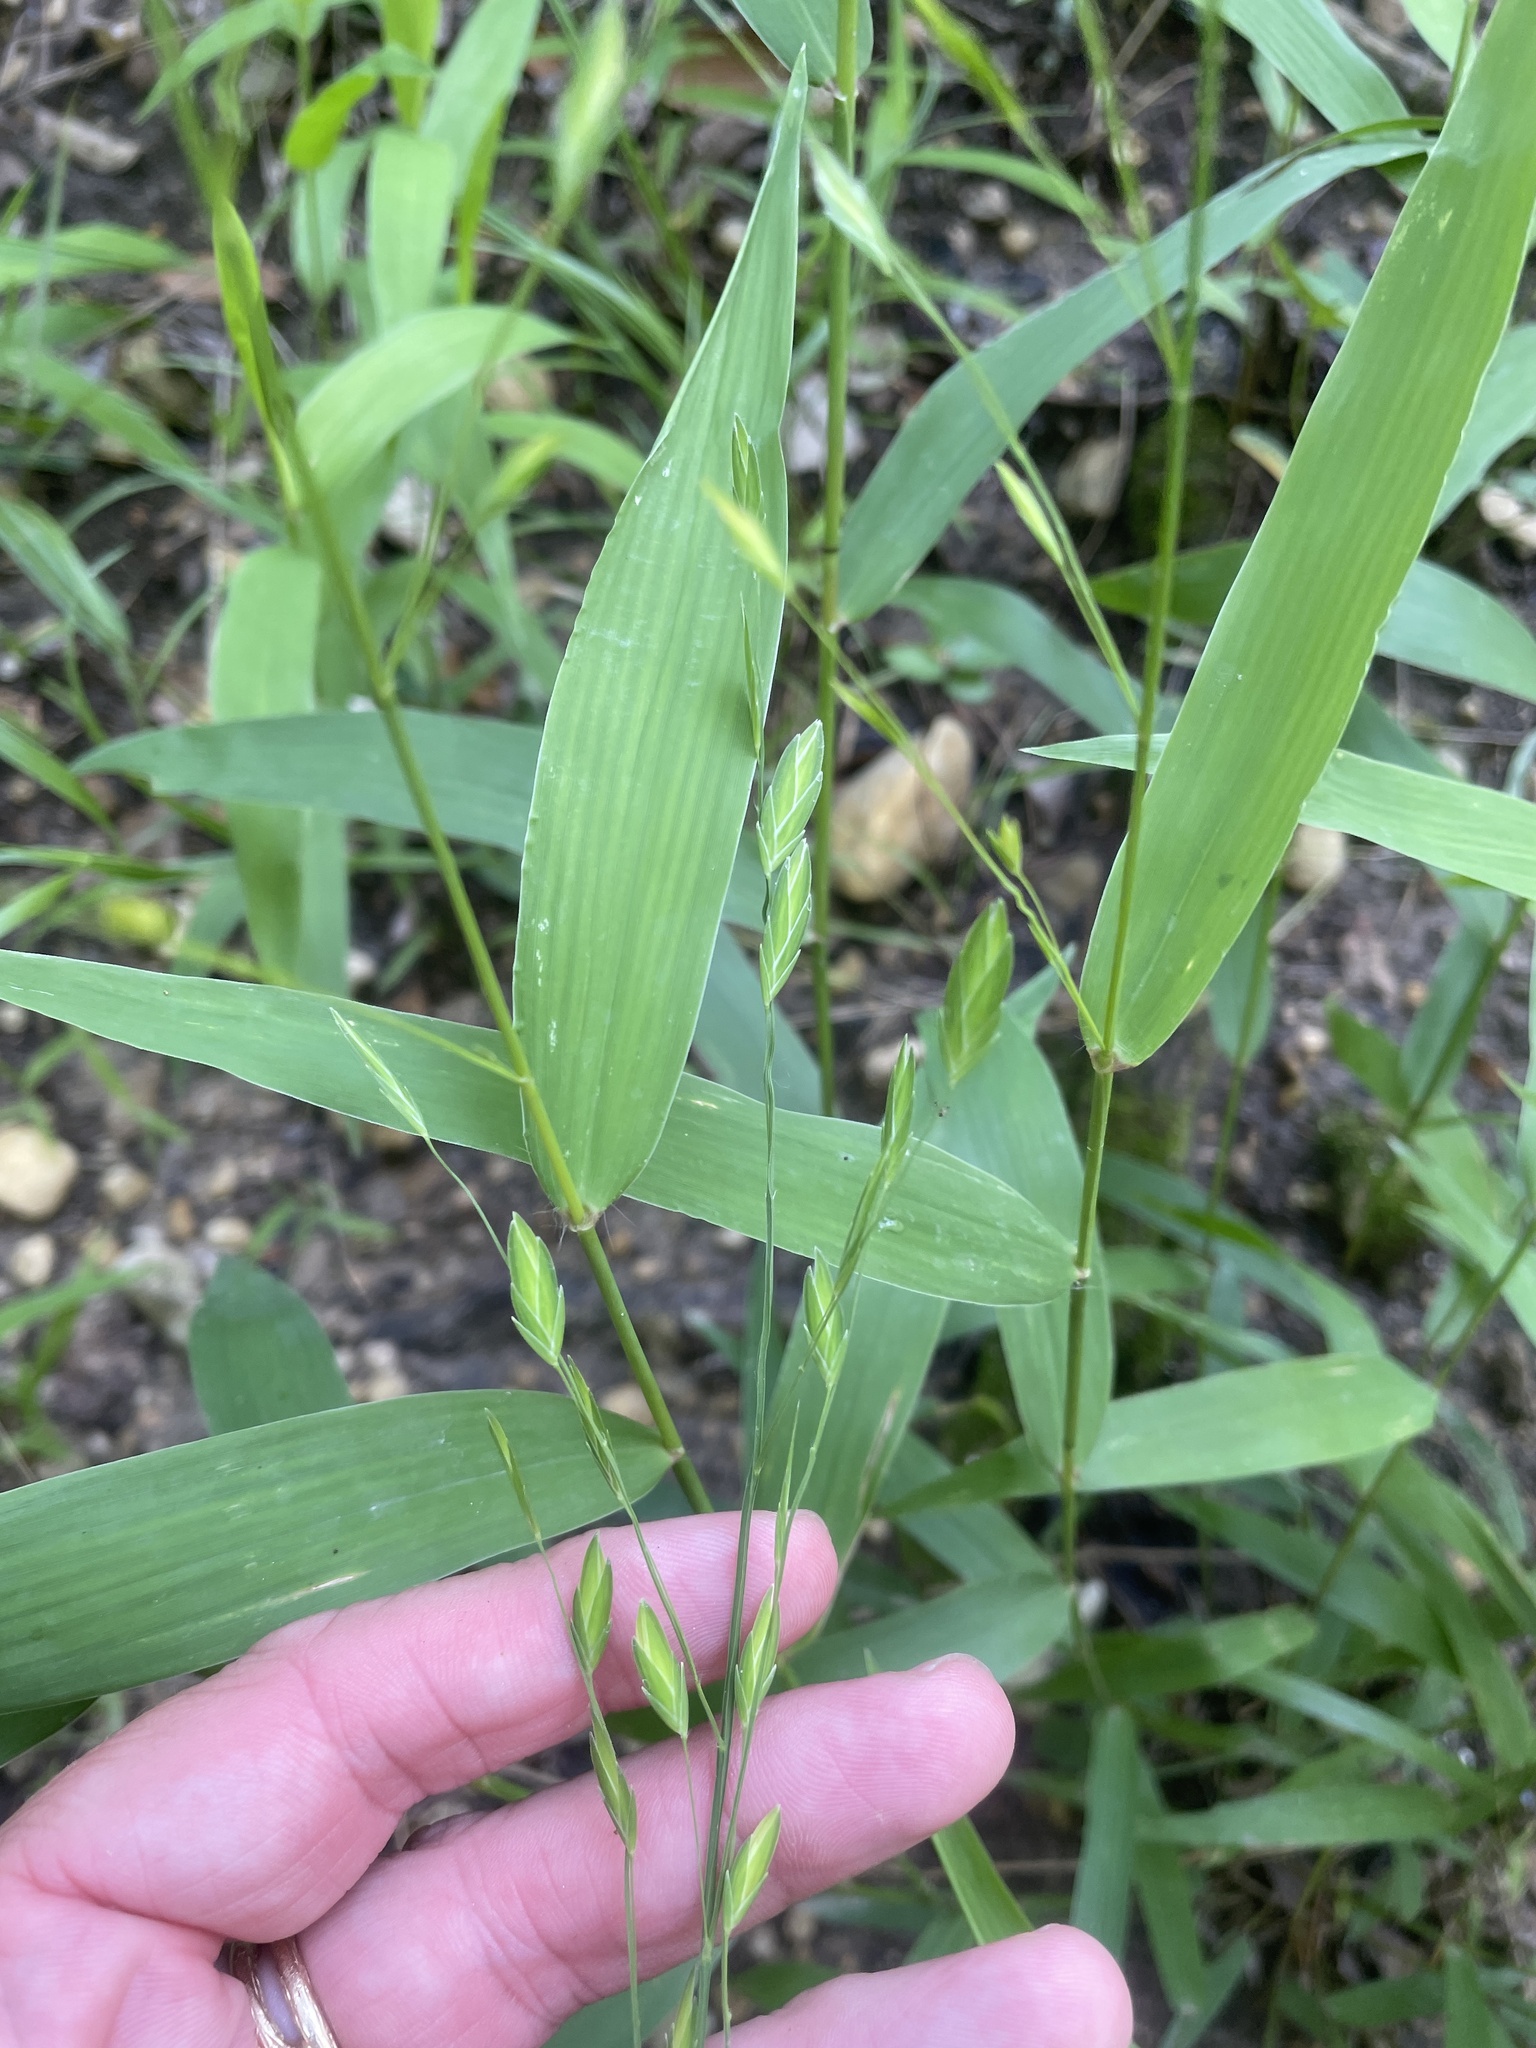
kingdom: Plantae
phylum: Tracheophyta
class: Liliopsida
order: Poales
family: Poaceae
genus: Chasmanthium
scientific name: Chasmanthium latifolium
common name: Broad-leaved chasmanthium
